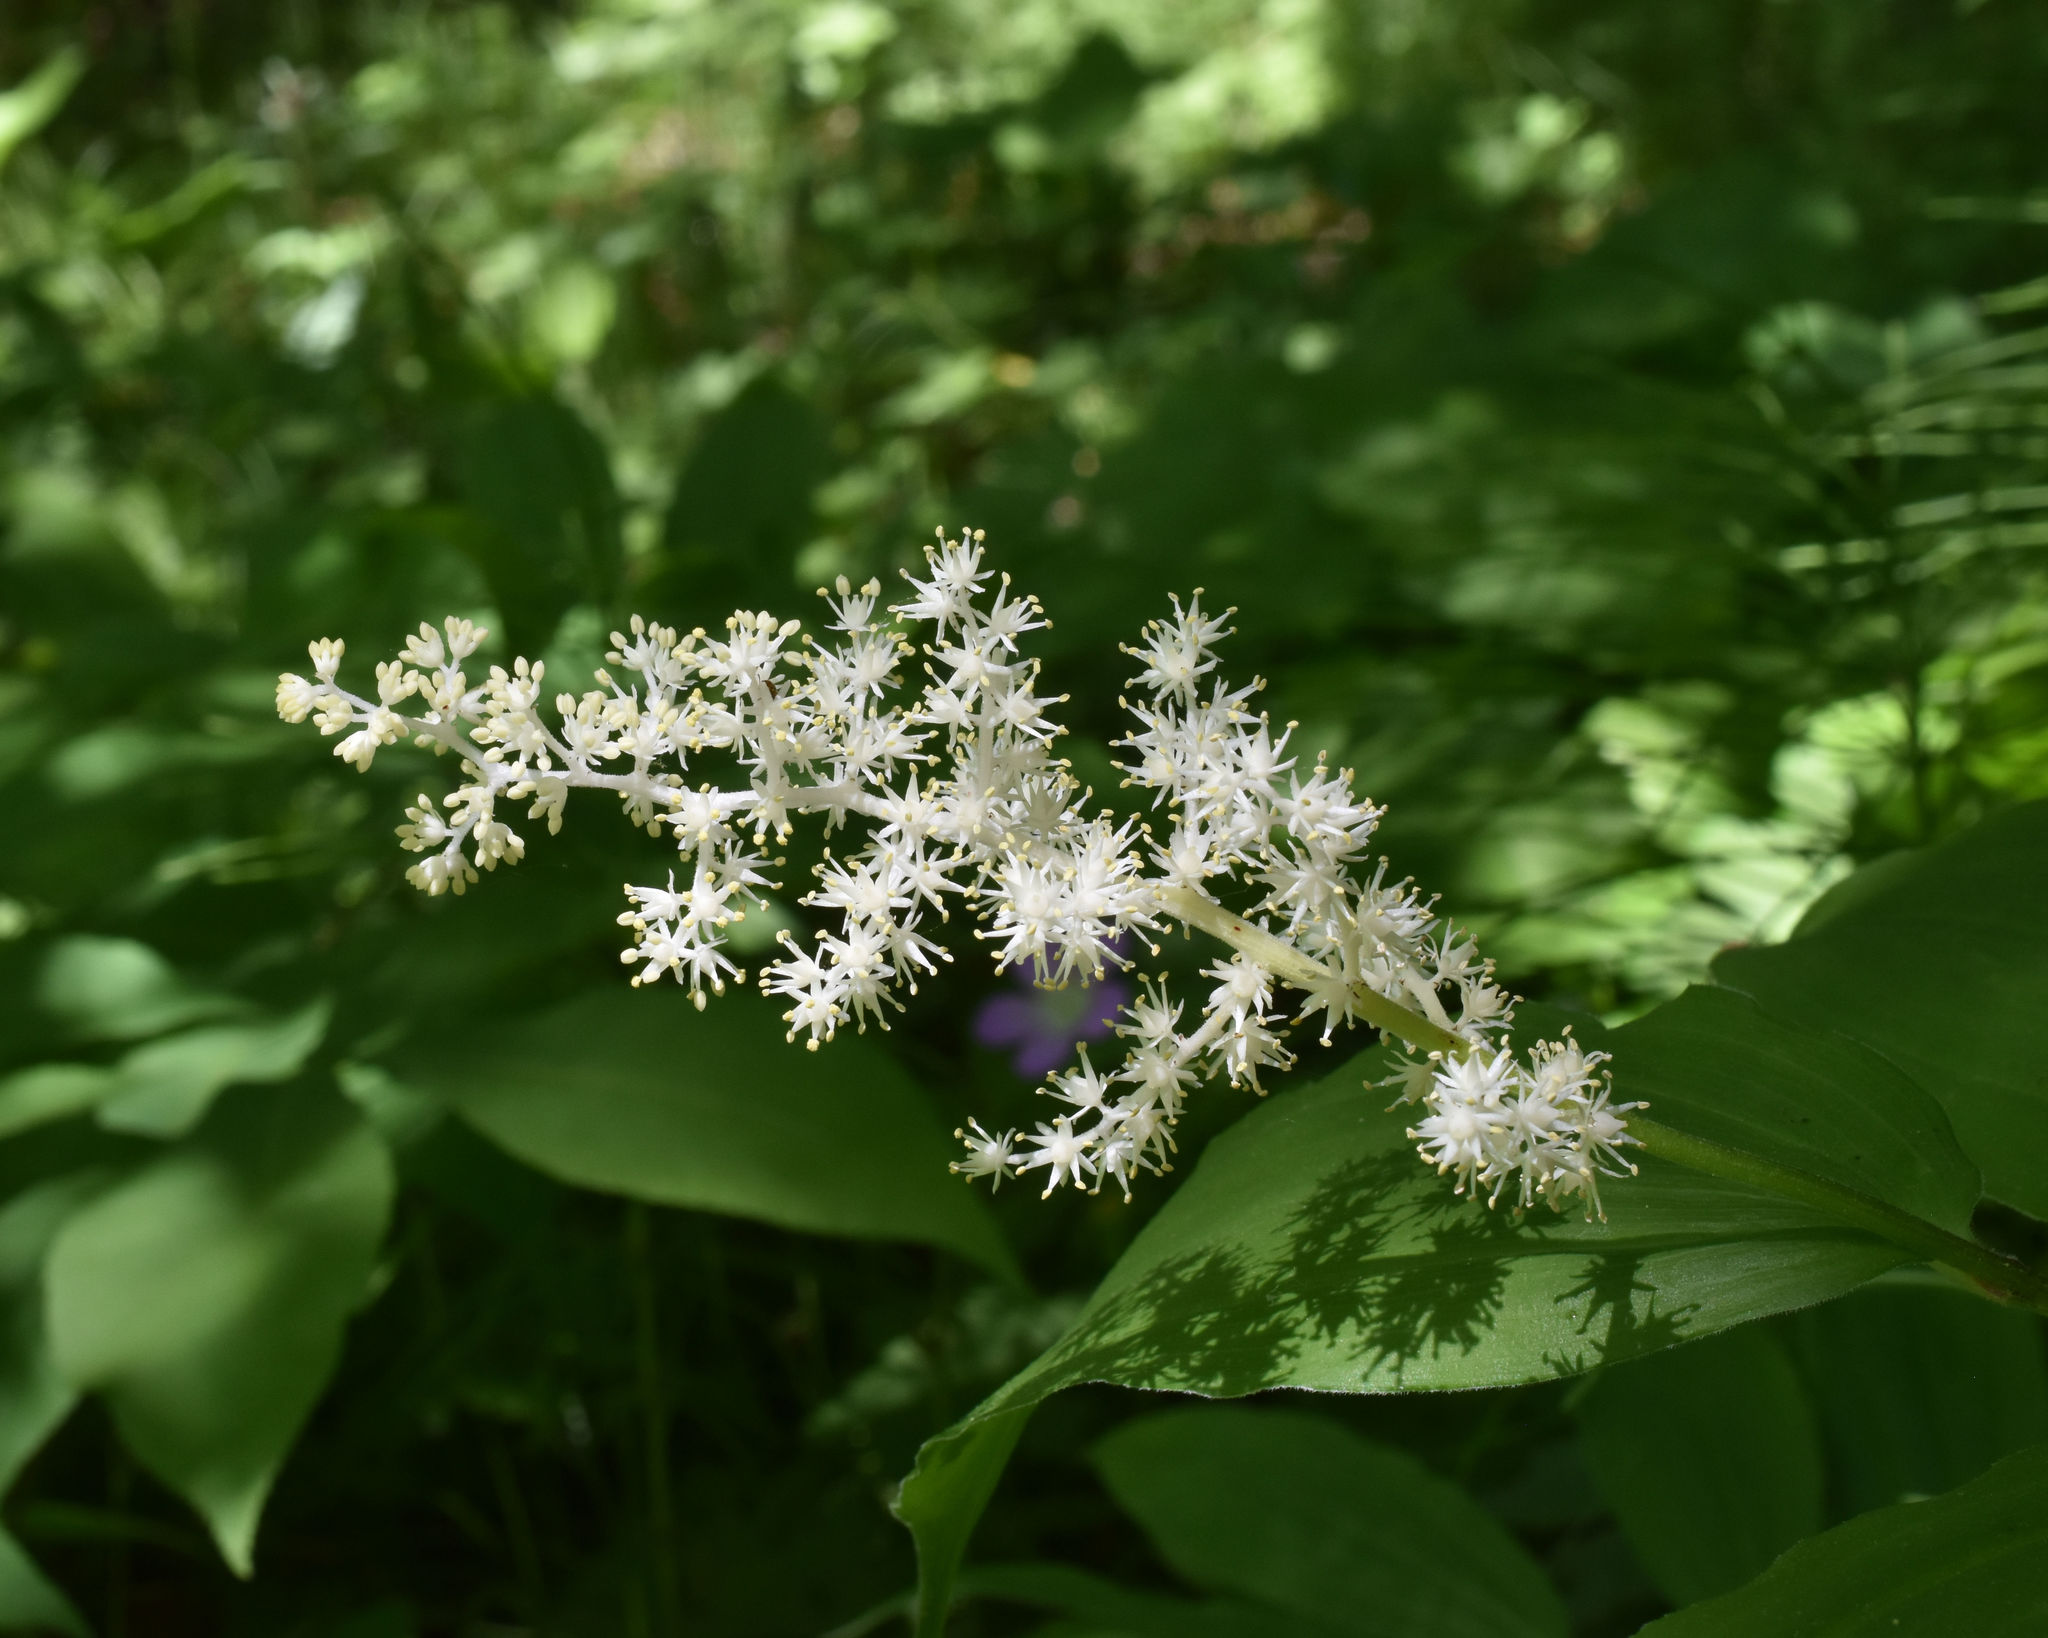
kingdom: Plantae
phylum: Tracheophyta
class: Liliopsida
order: Asparagales
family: Asparagaceae
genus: Maianthemum
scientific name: Maianthemum racemosum
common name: False spikenard
